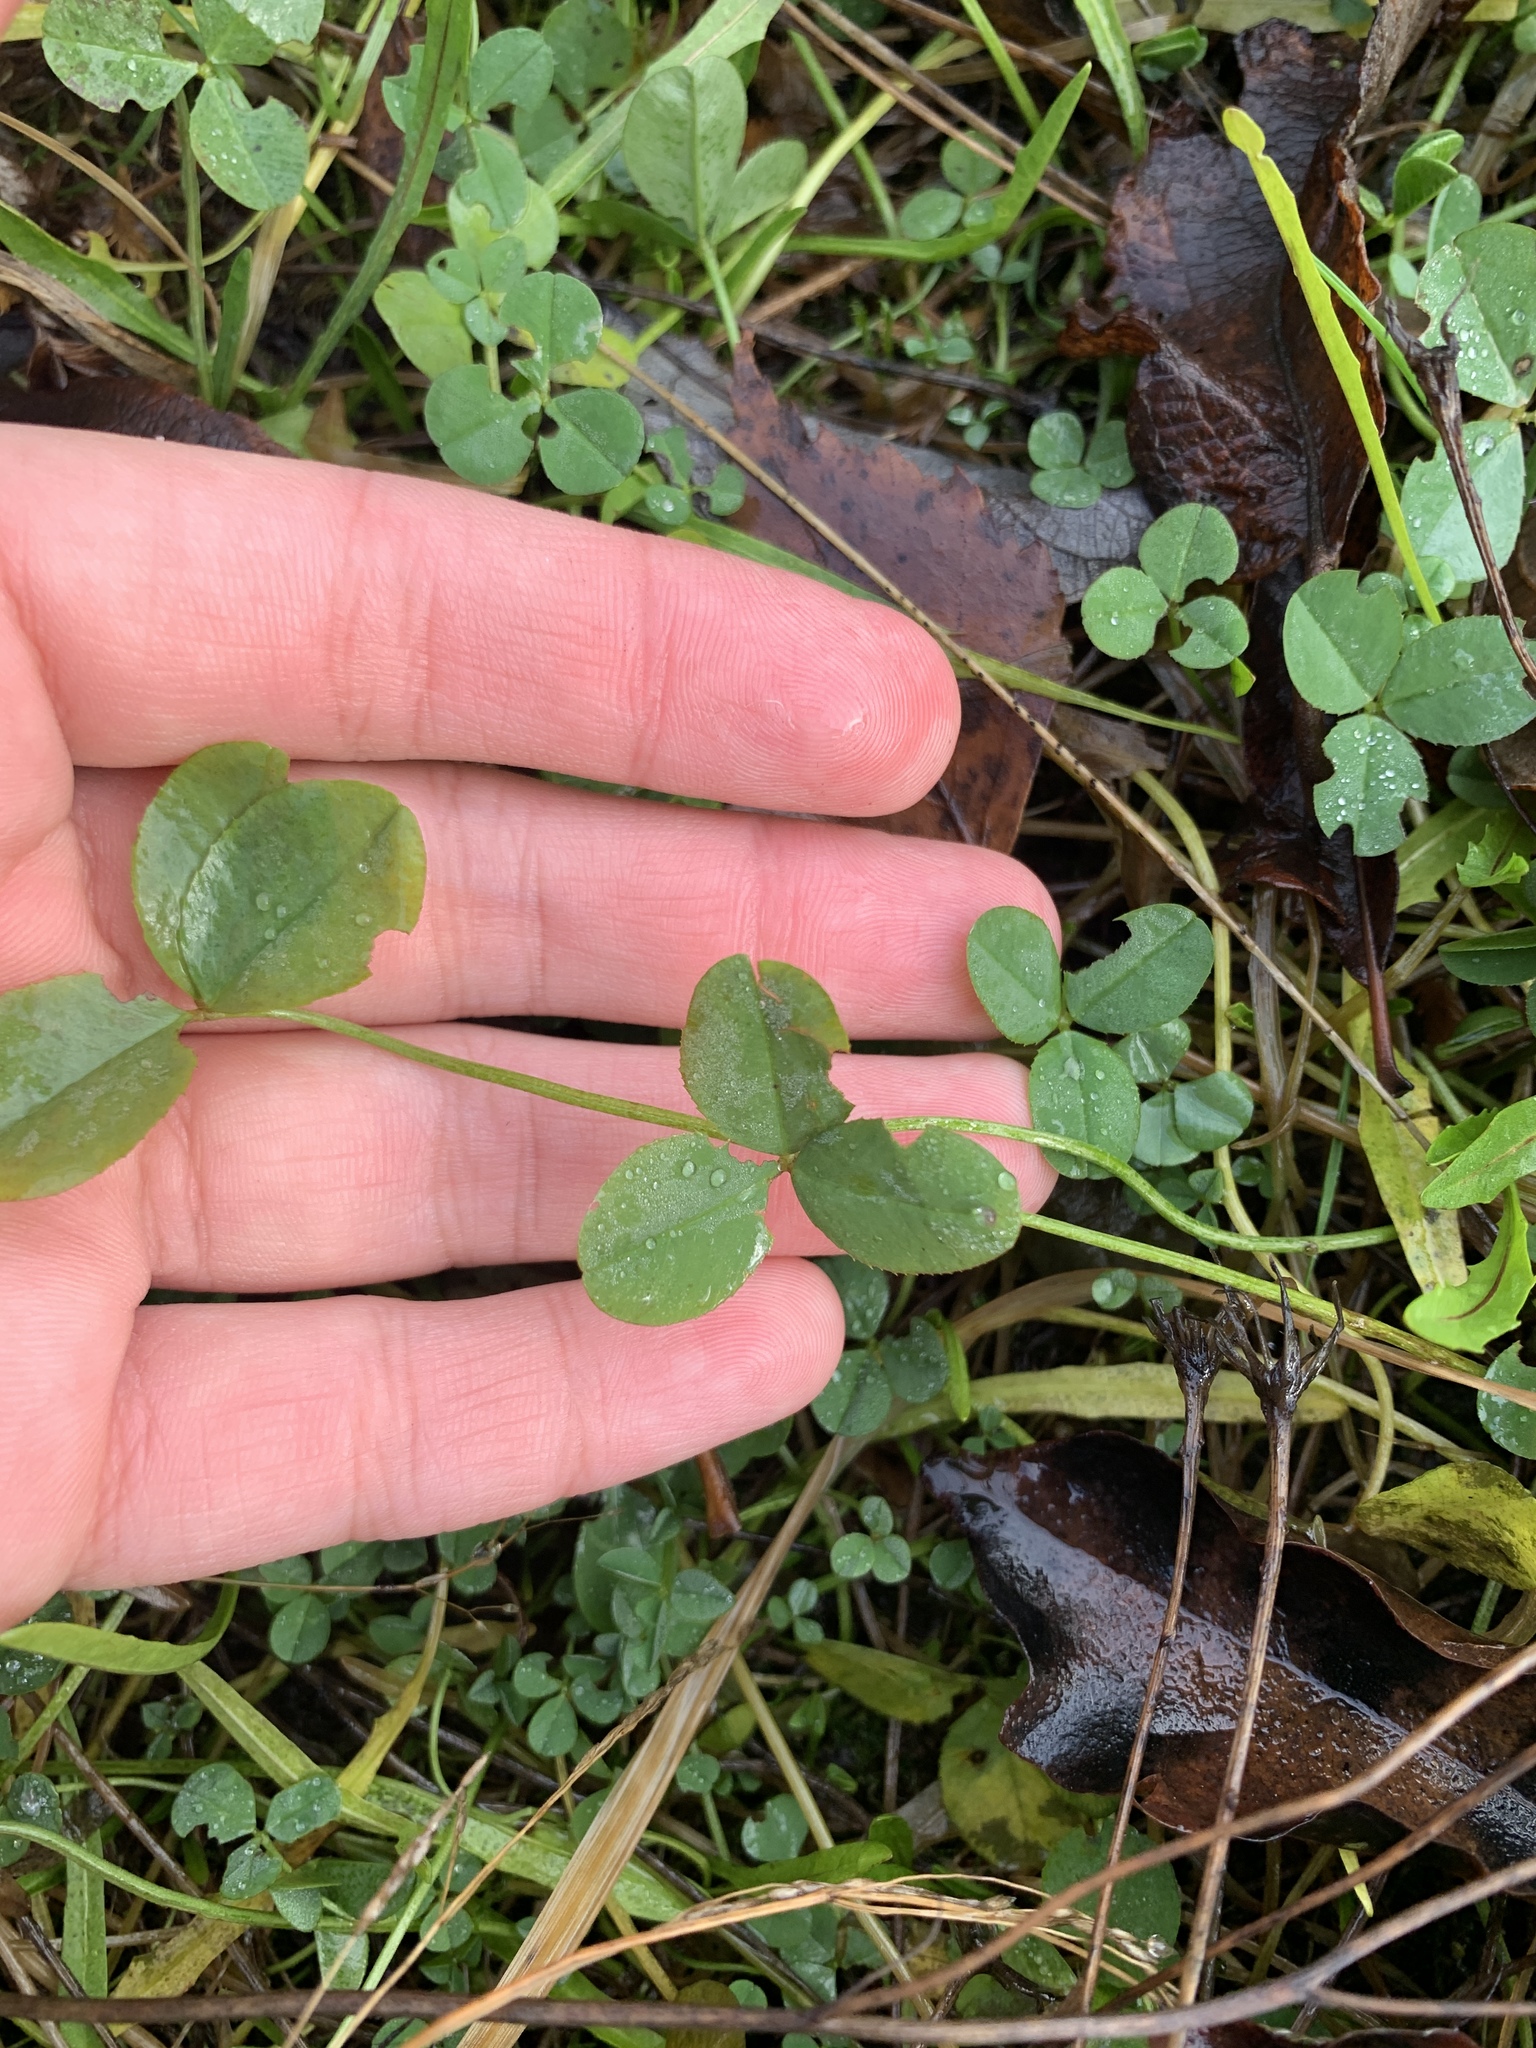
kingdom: Plantae
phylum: Tracheophyta
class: Magnoliopsida
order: Fabales
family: Fabaceae
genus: Trifolium
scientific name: Trifolium repens
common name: White clover
